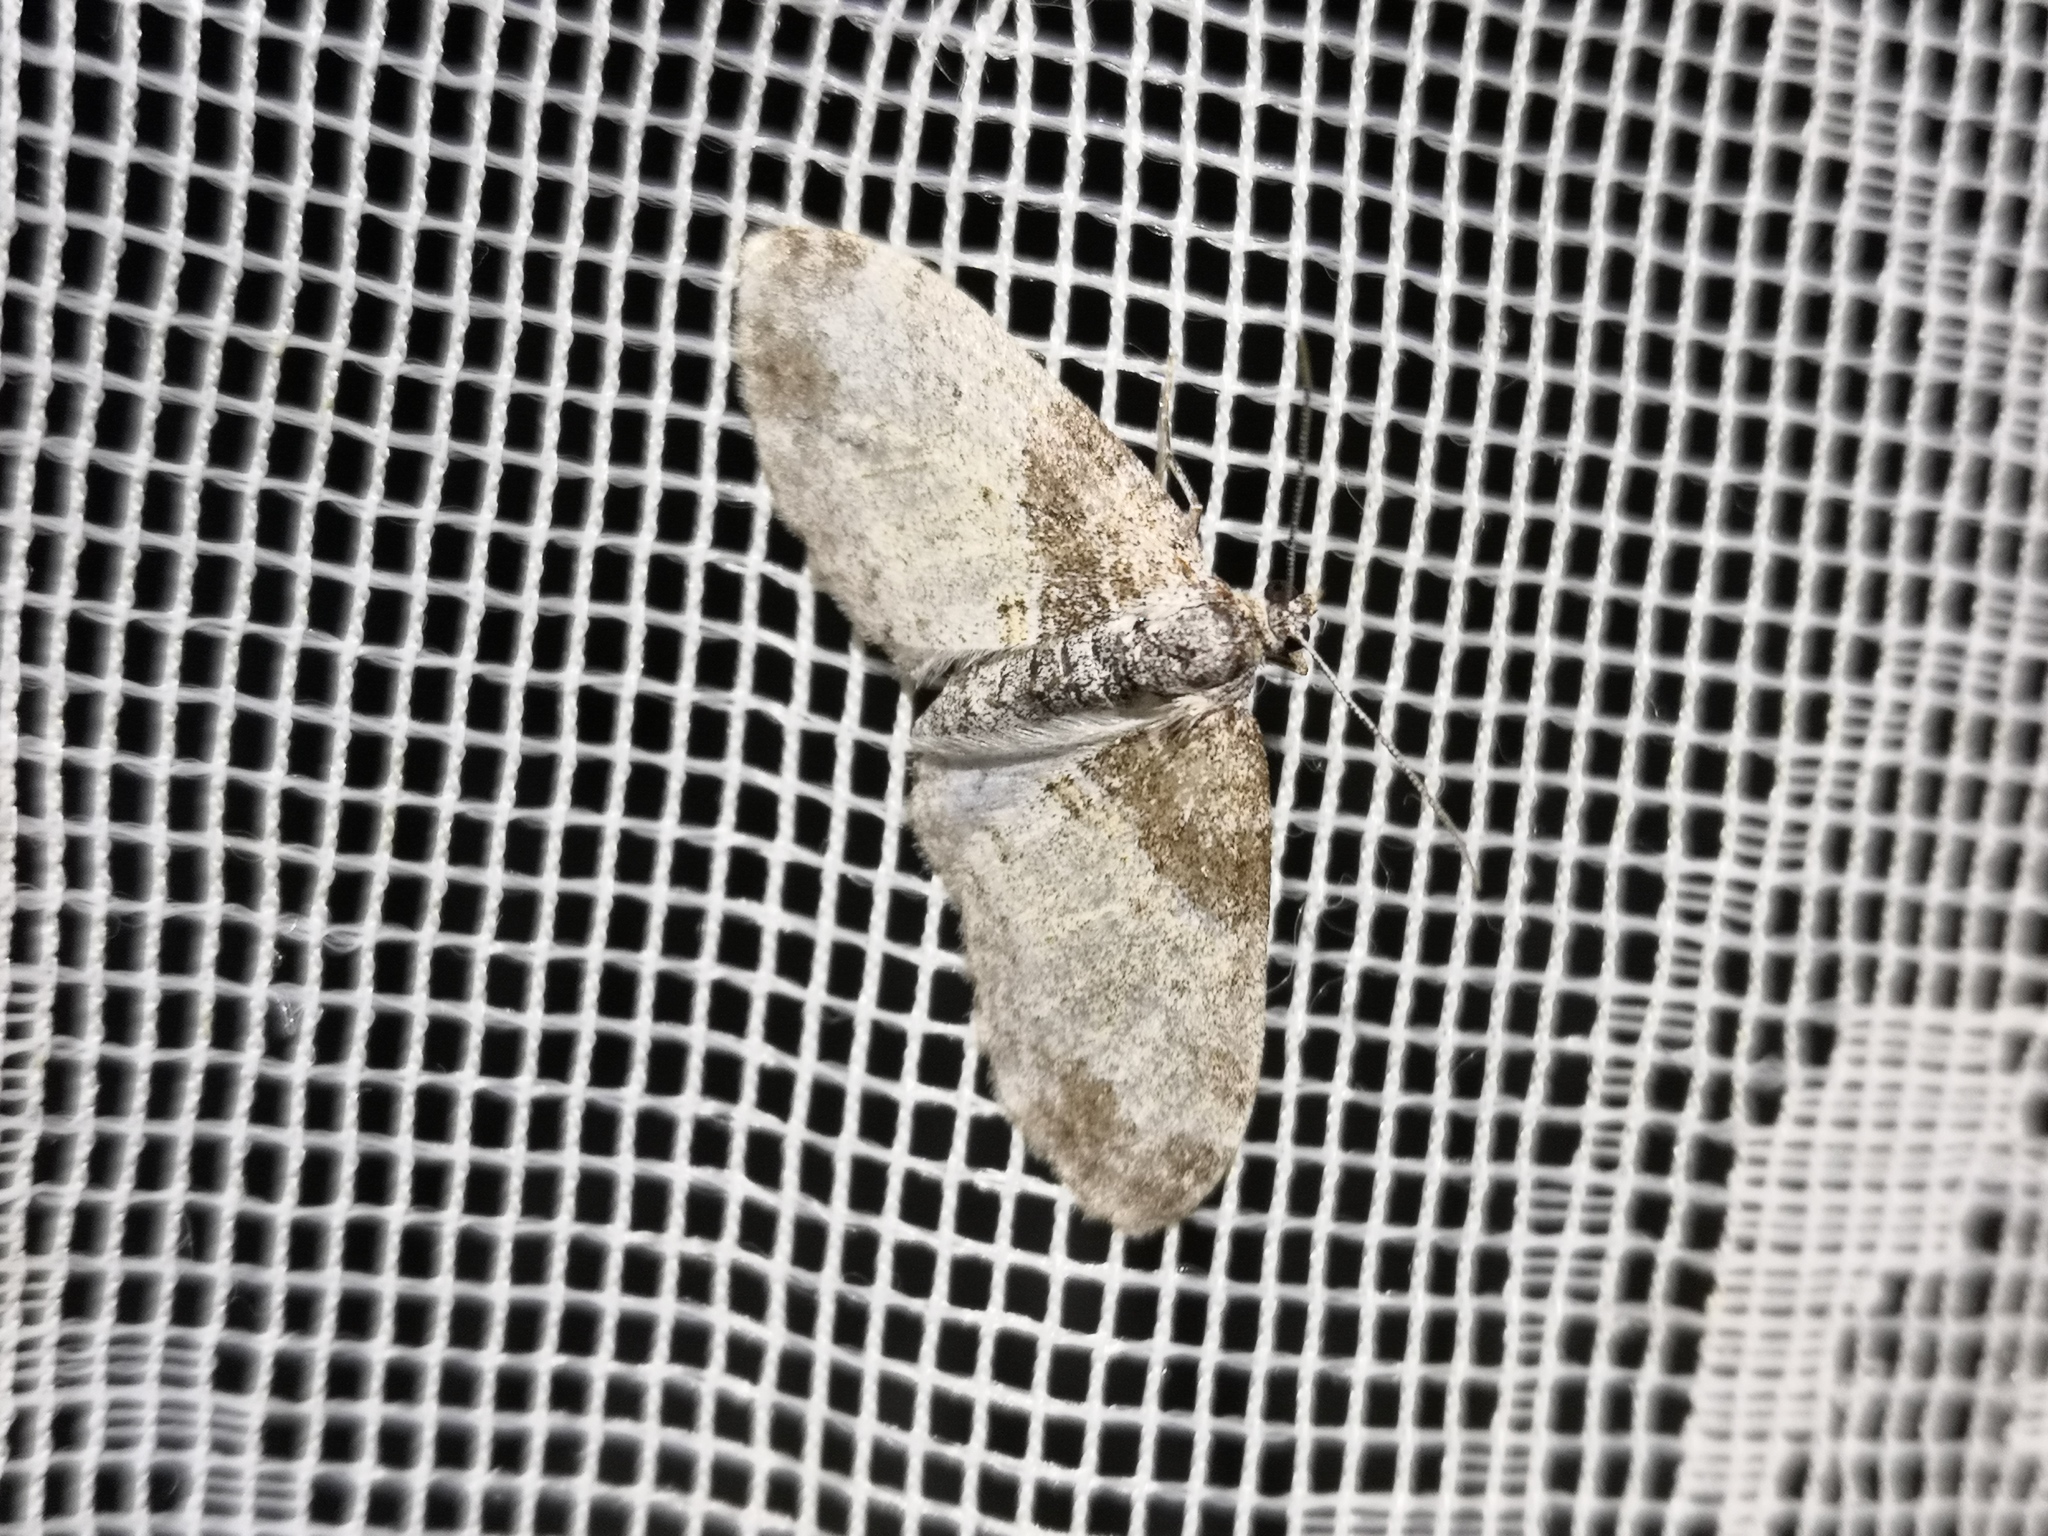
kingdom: Animalia
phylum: Arthropoda
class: Insecta
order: Lepidoptera
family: Geometridae
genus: Lobophora
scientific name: Lobophora halterata
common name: Seraphim
